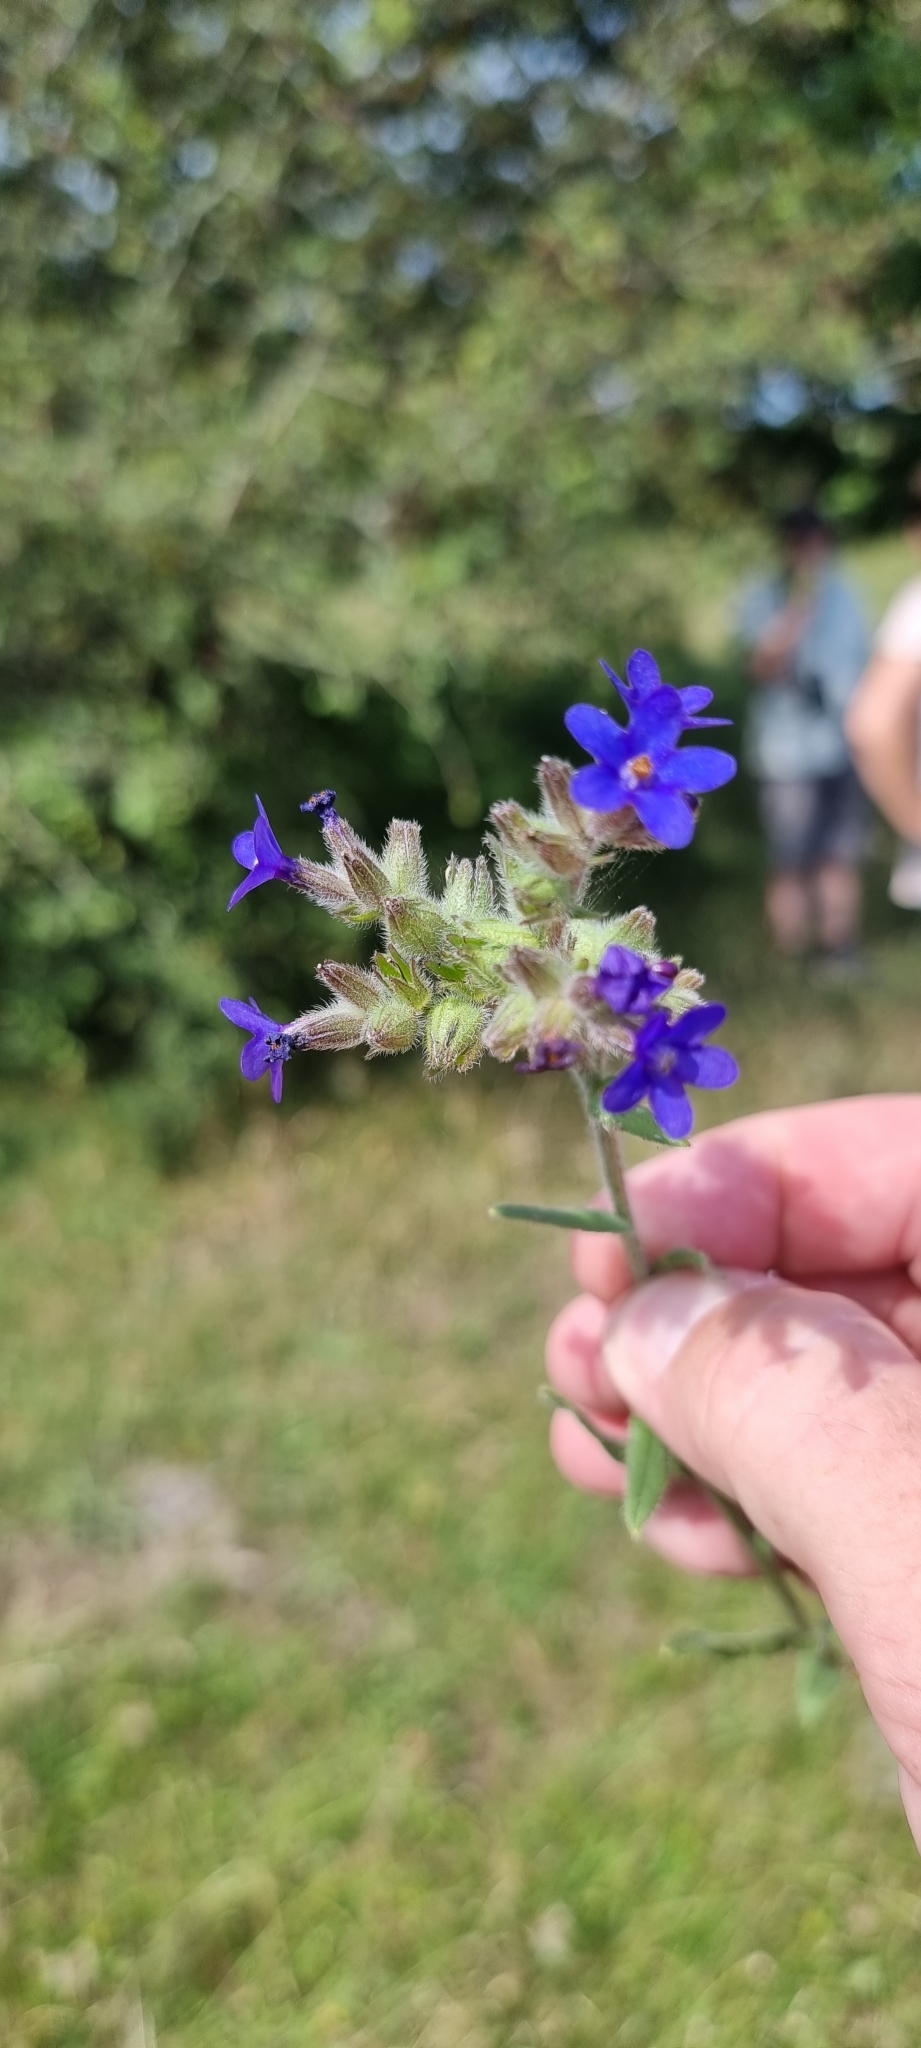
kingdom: Plantae
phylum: Tracheophyta
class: Magnoliopsida
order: Boraginales
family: Boraginaceae
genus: Anchusa
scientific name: Anchusa officinalis
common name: Alkanet
